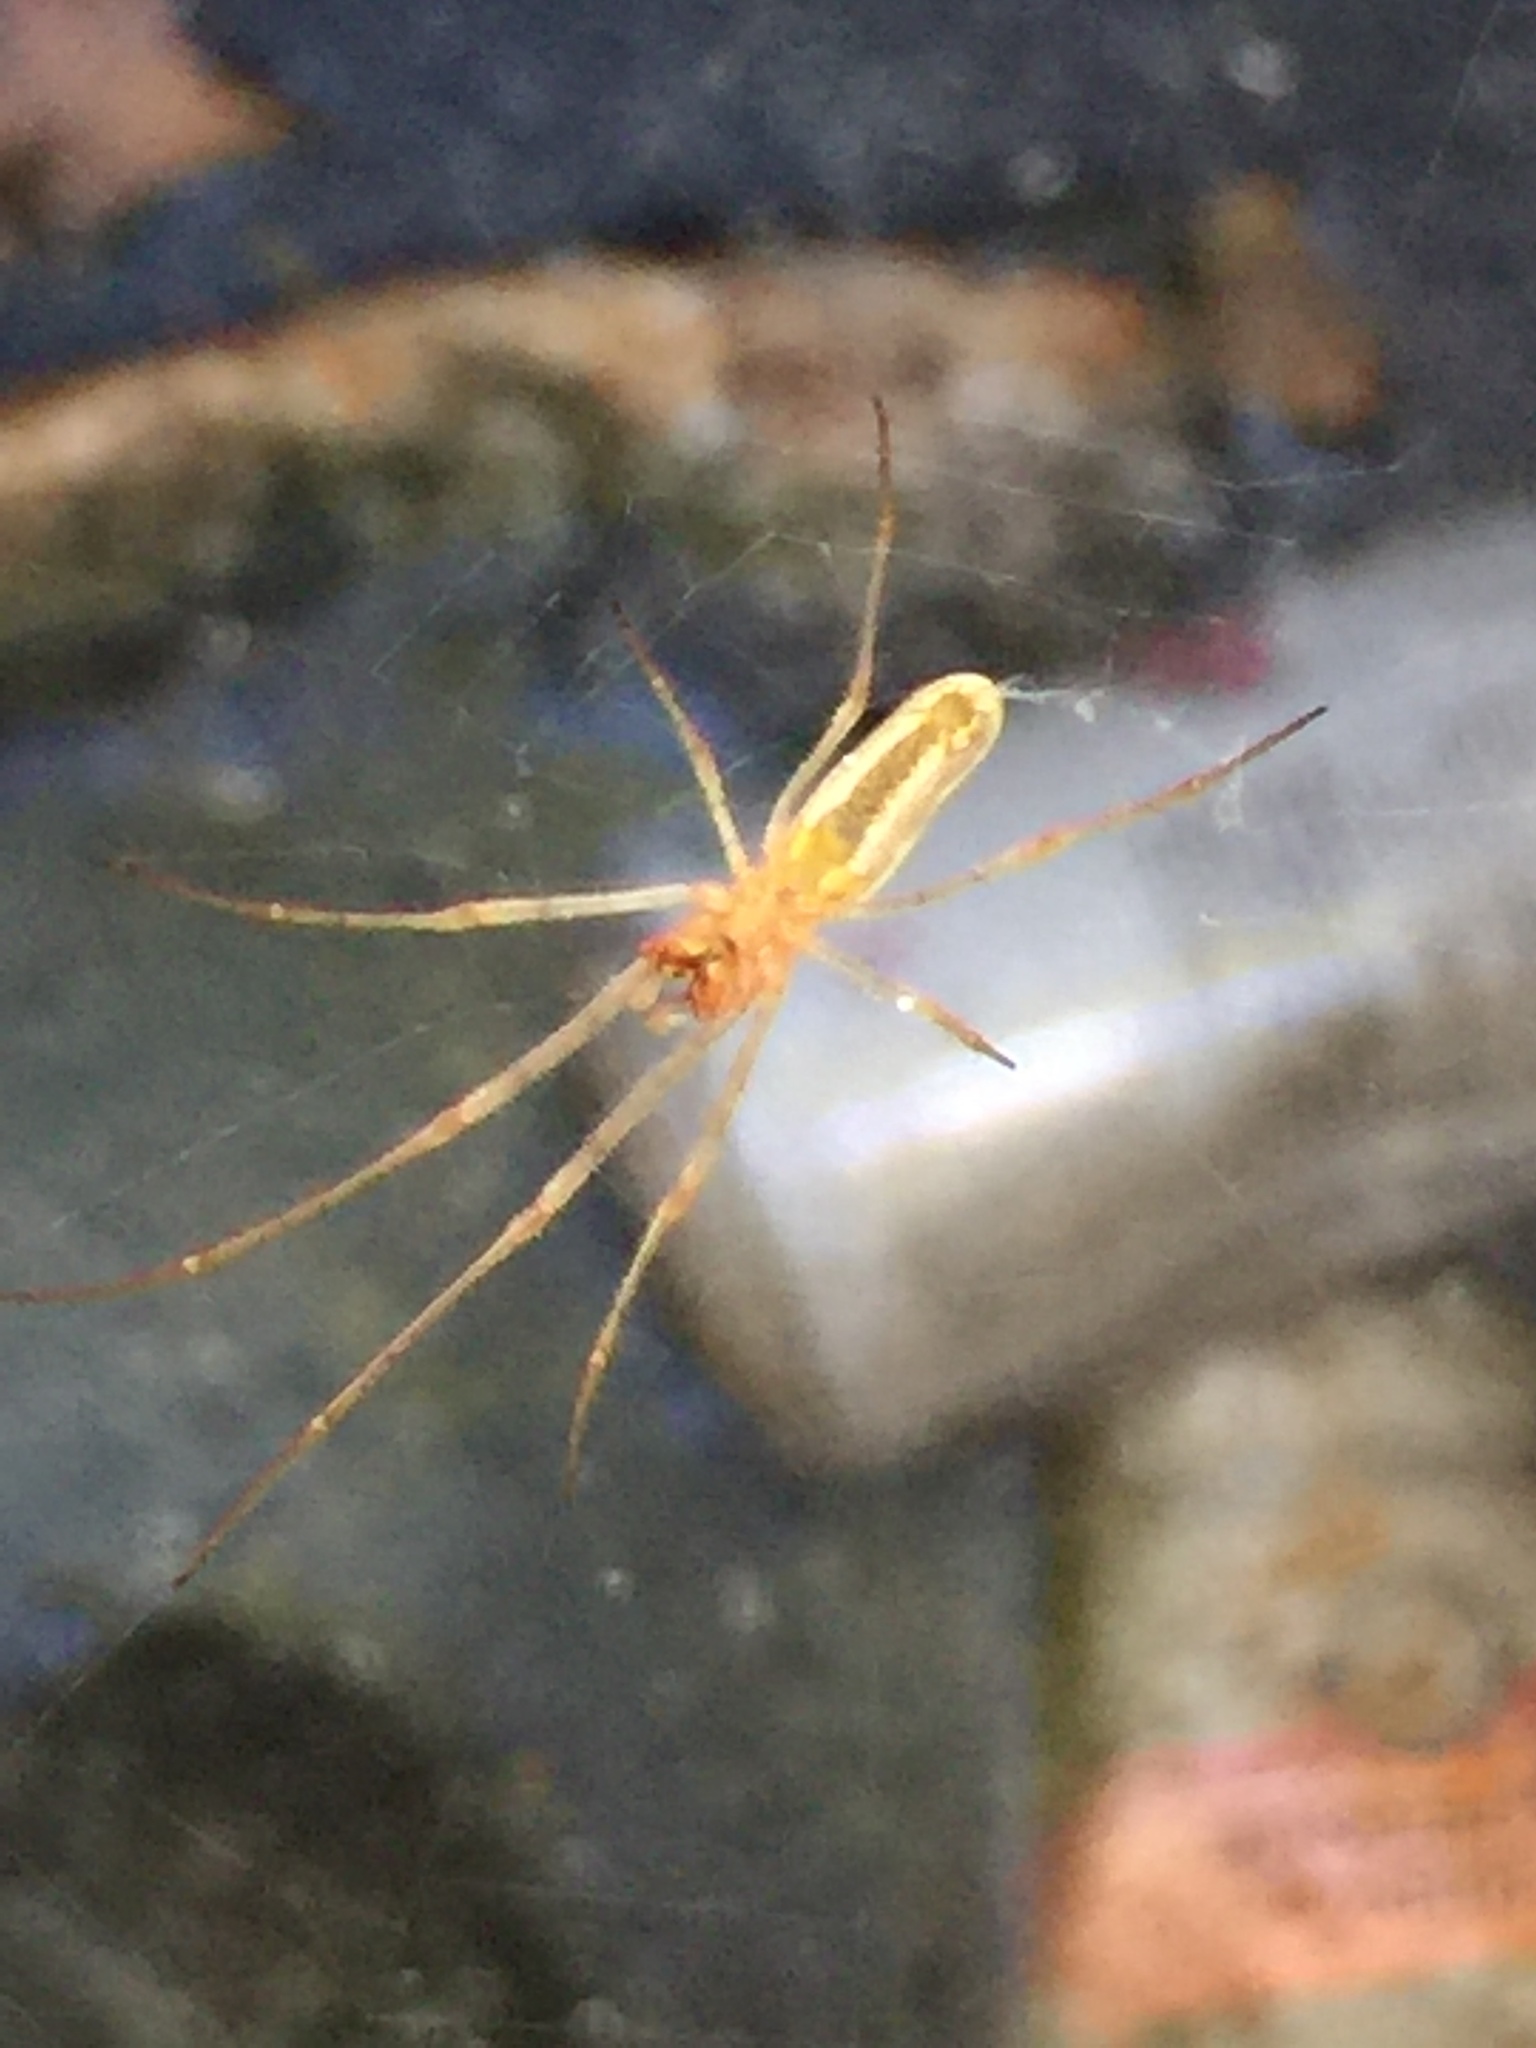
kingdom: Animalia
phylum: Arthropoda
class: Arachnida
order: Araneae
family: Tetragnathidae
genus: Tetragnatha
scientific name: Tetragnatha
